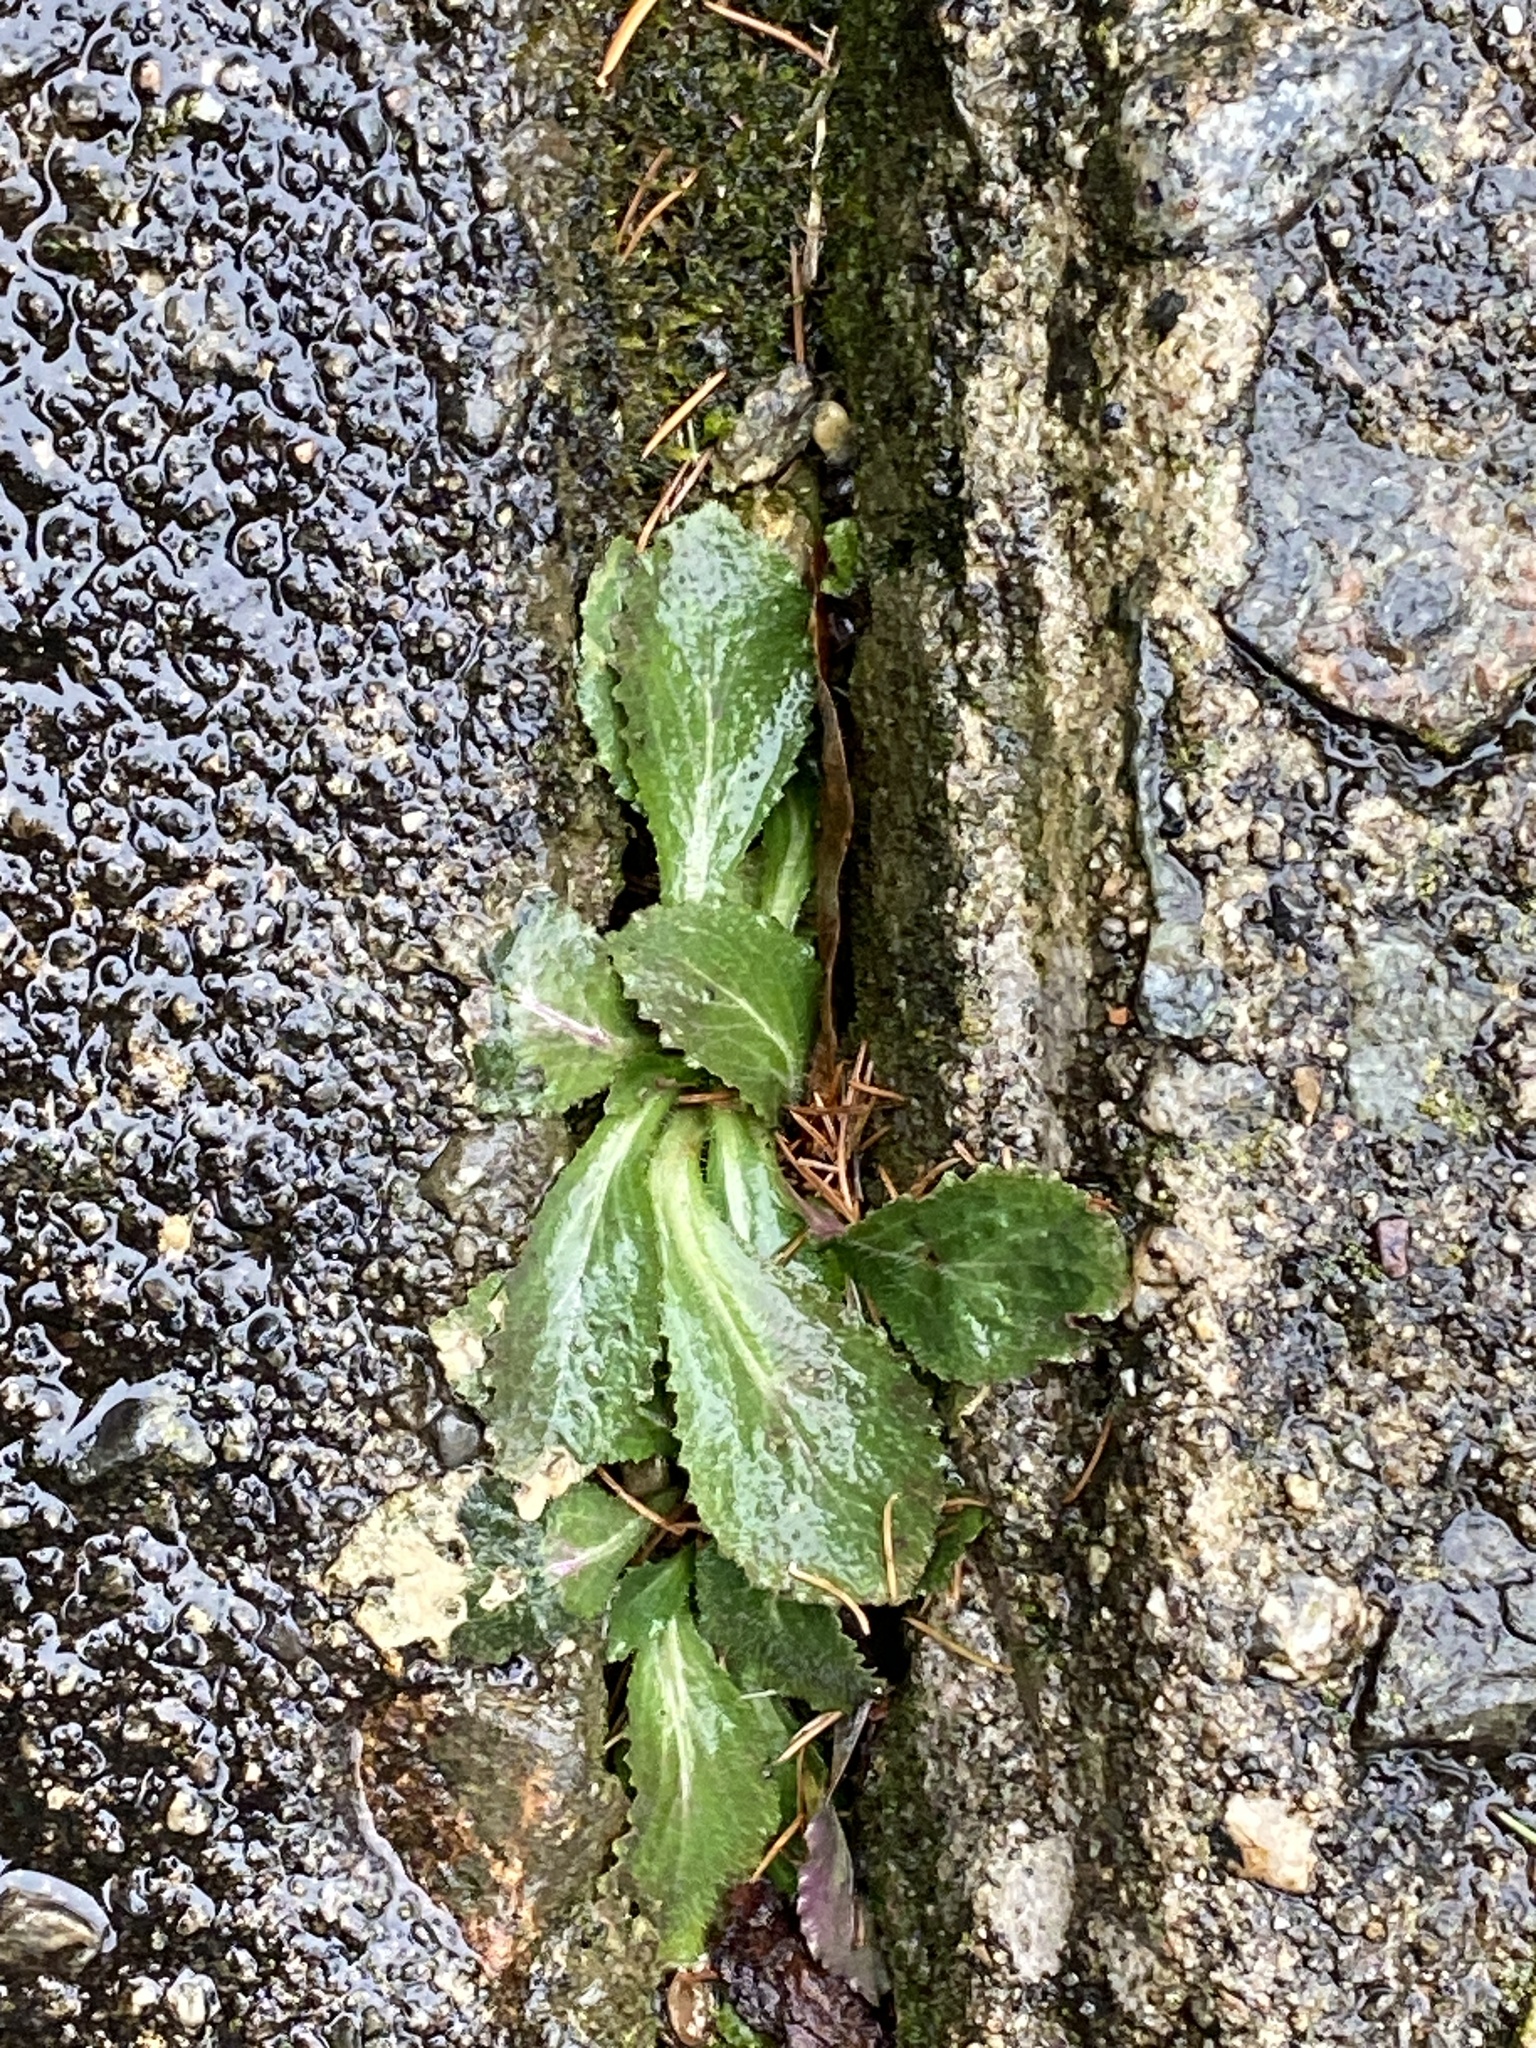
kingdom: Plantae
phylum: Tracheophyta
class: Magnoliopsida
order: Asterales
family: Campanulaceae
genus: Lobelia
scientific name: Lobelia inflata
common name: Indian tobacco
